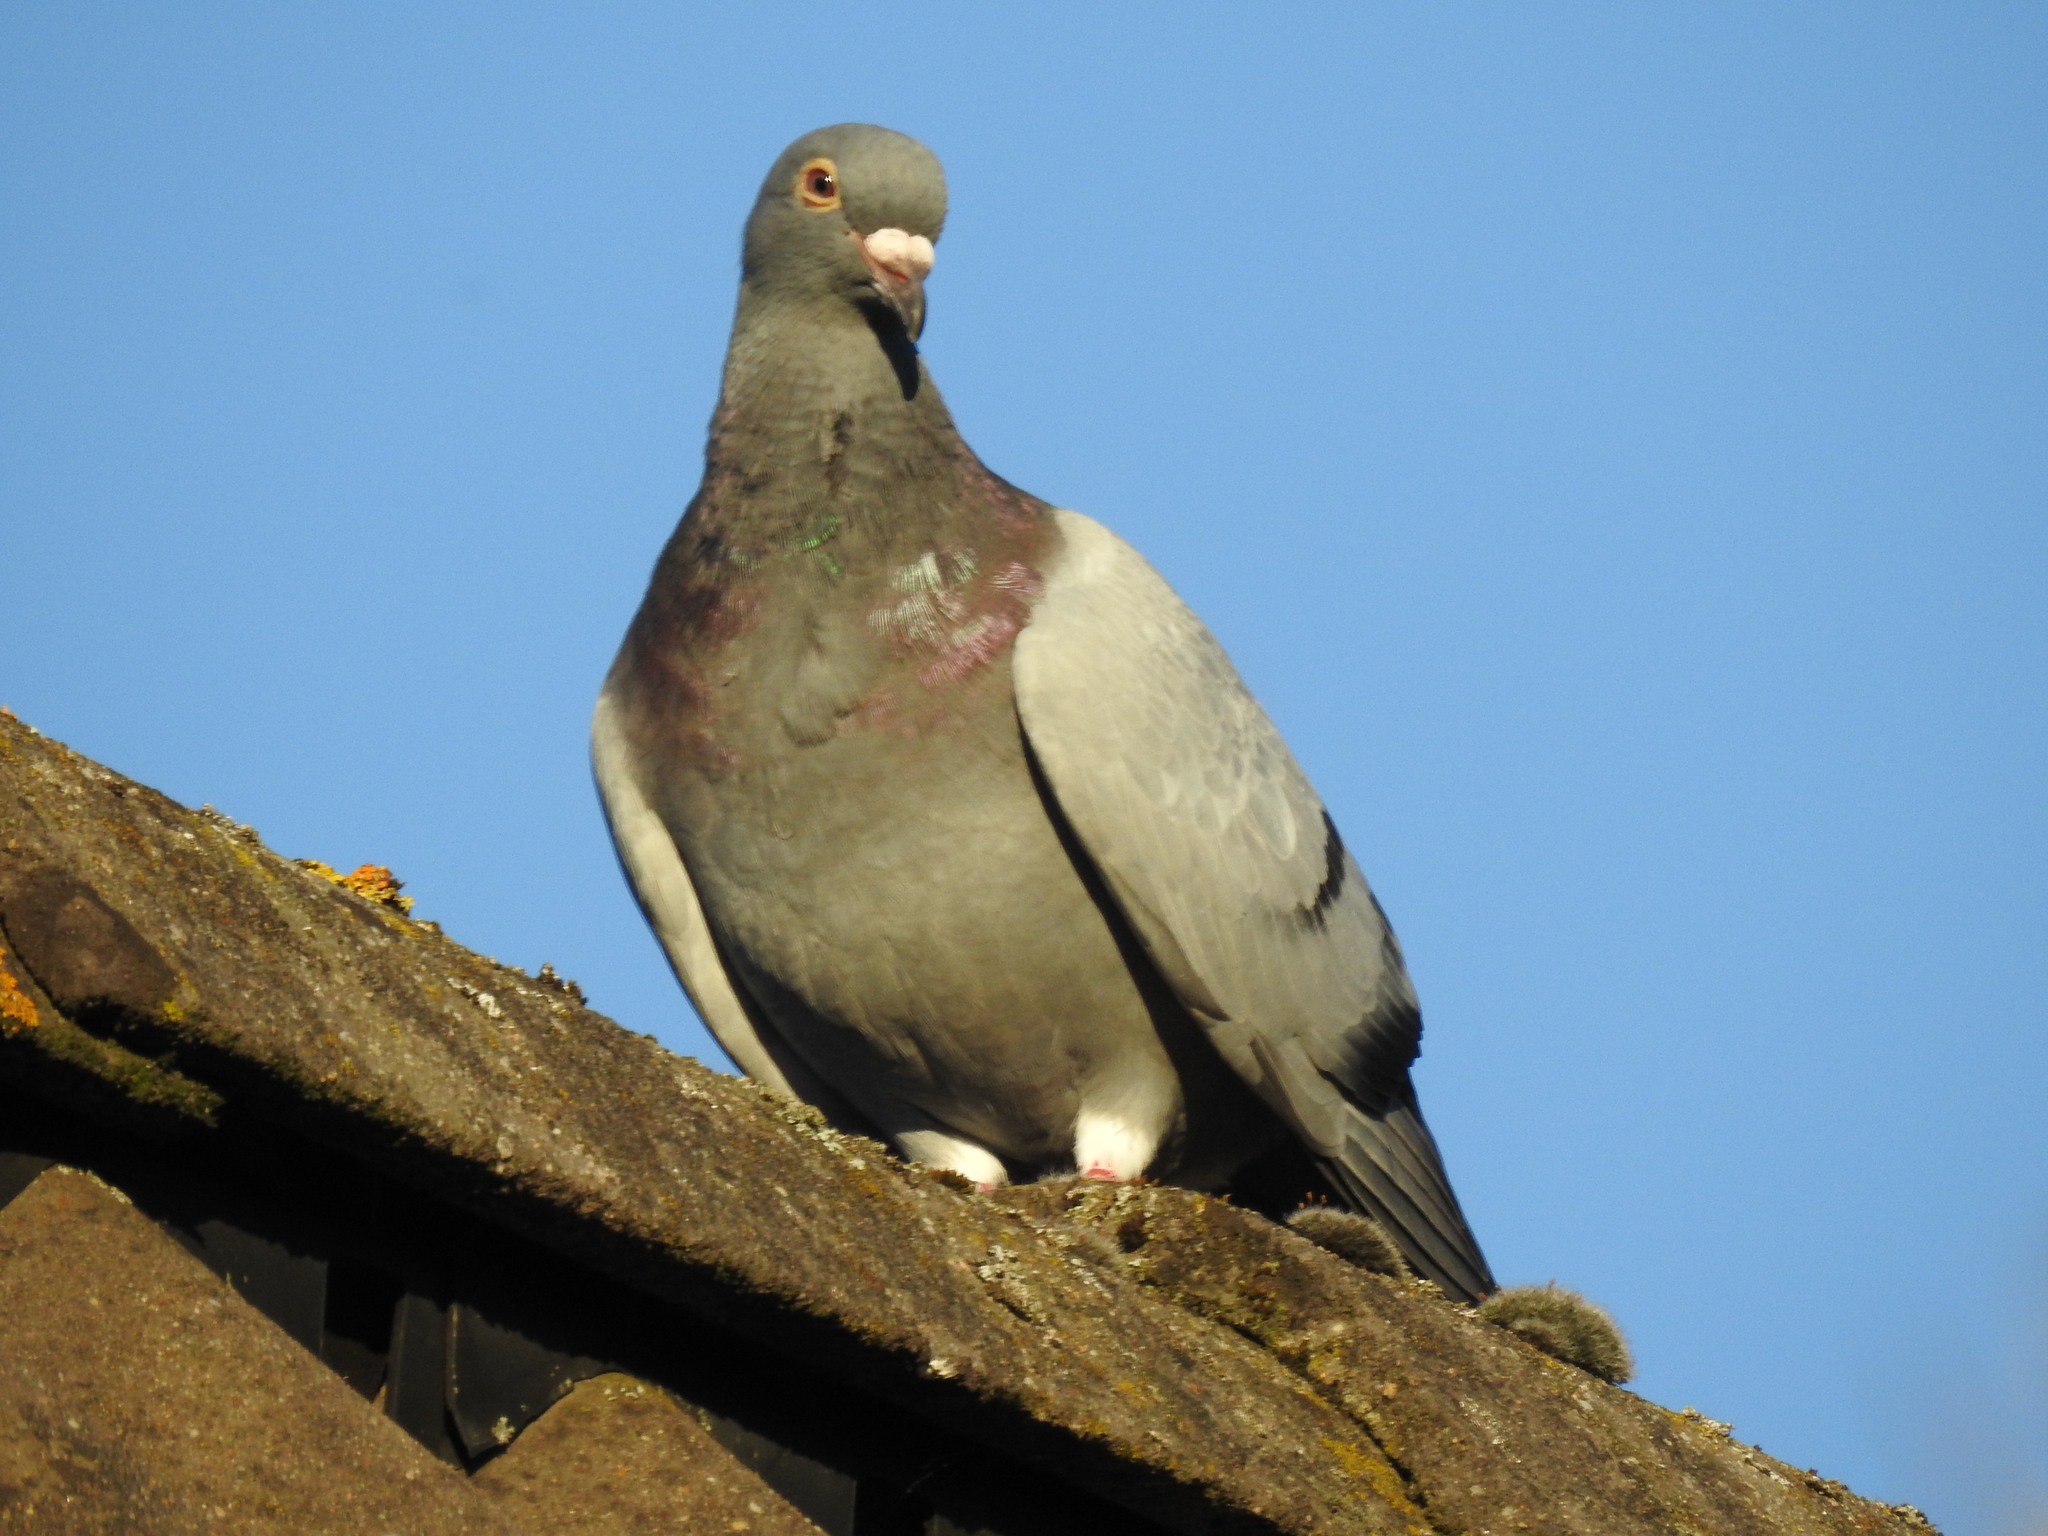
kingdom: Animalia
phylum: Chordata
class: Aves
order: Columbiformes
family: Columbidae
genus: Columba
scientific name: Columba livia
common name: Rock pigeon
